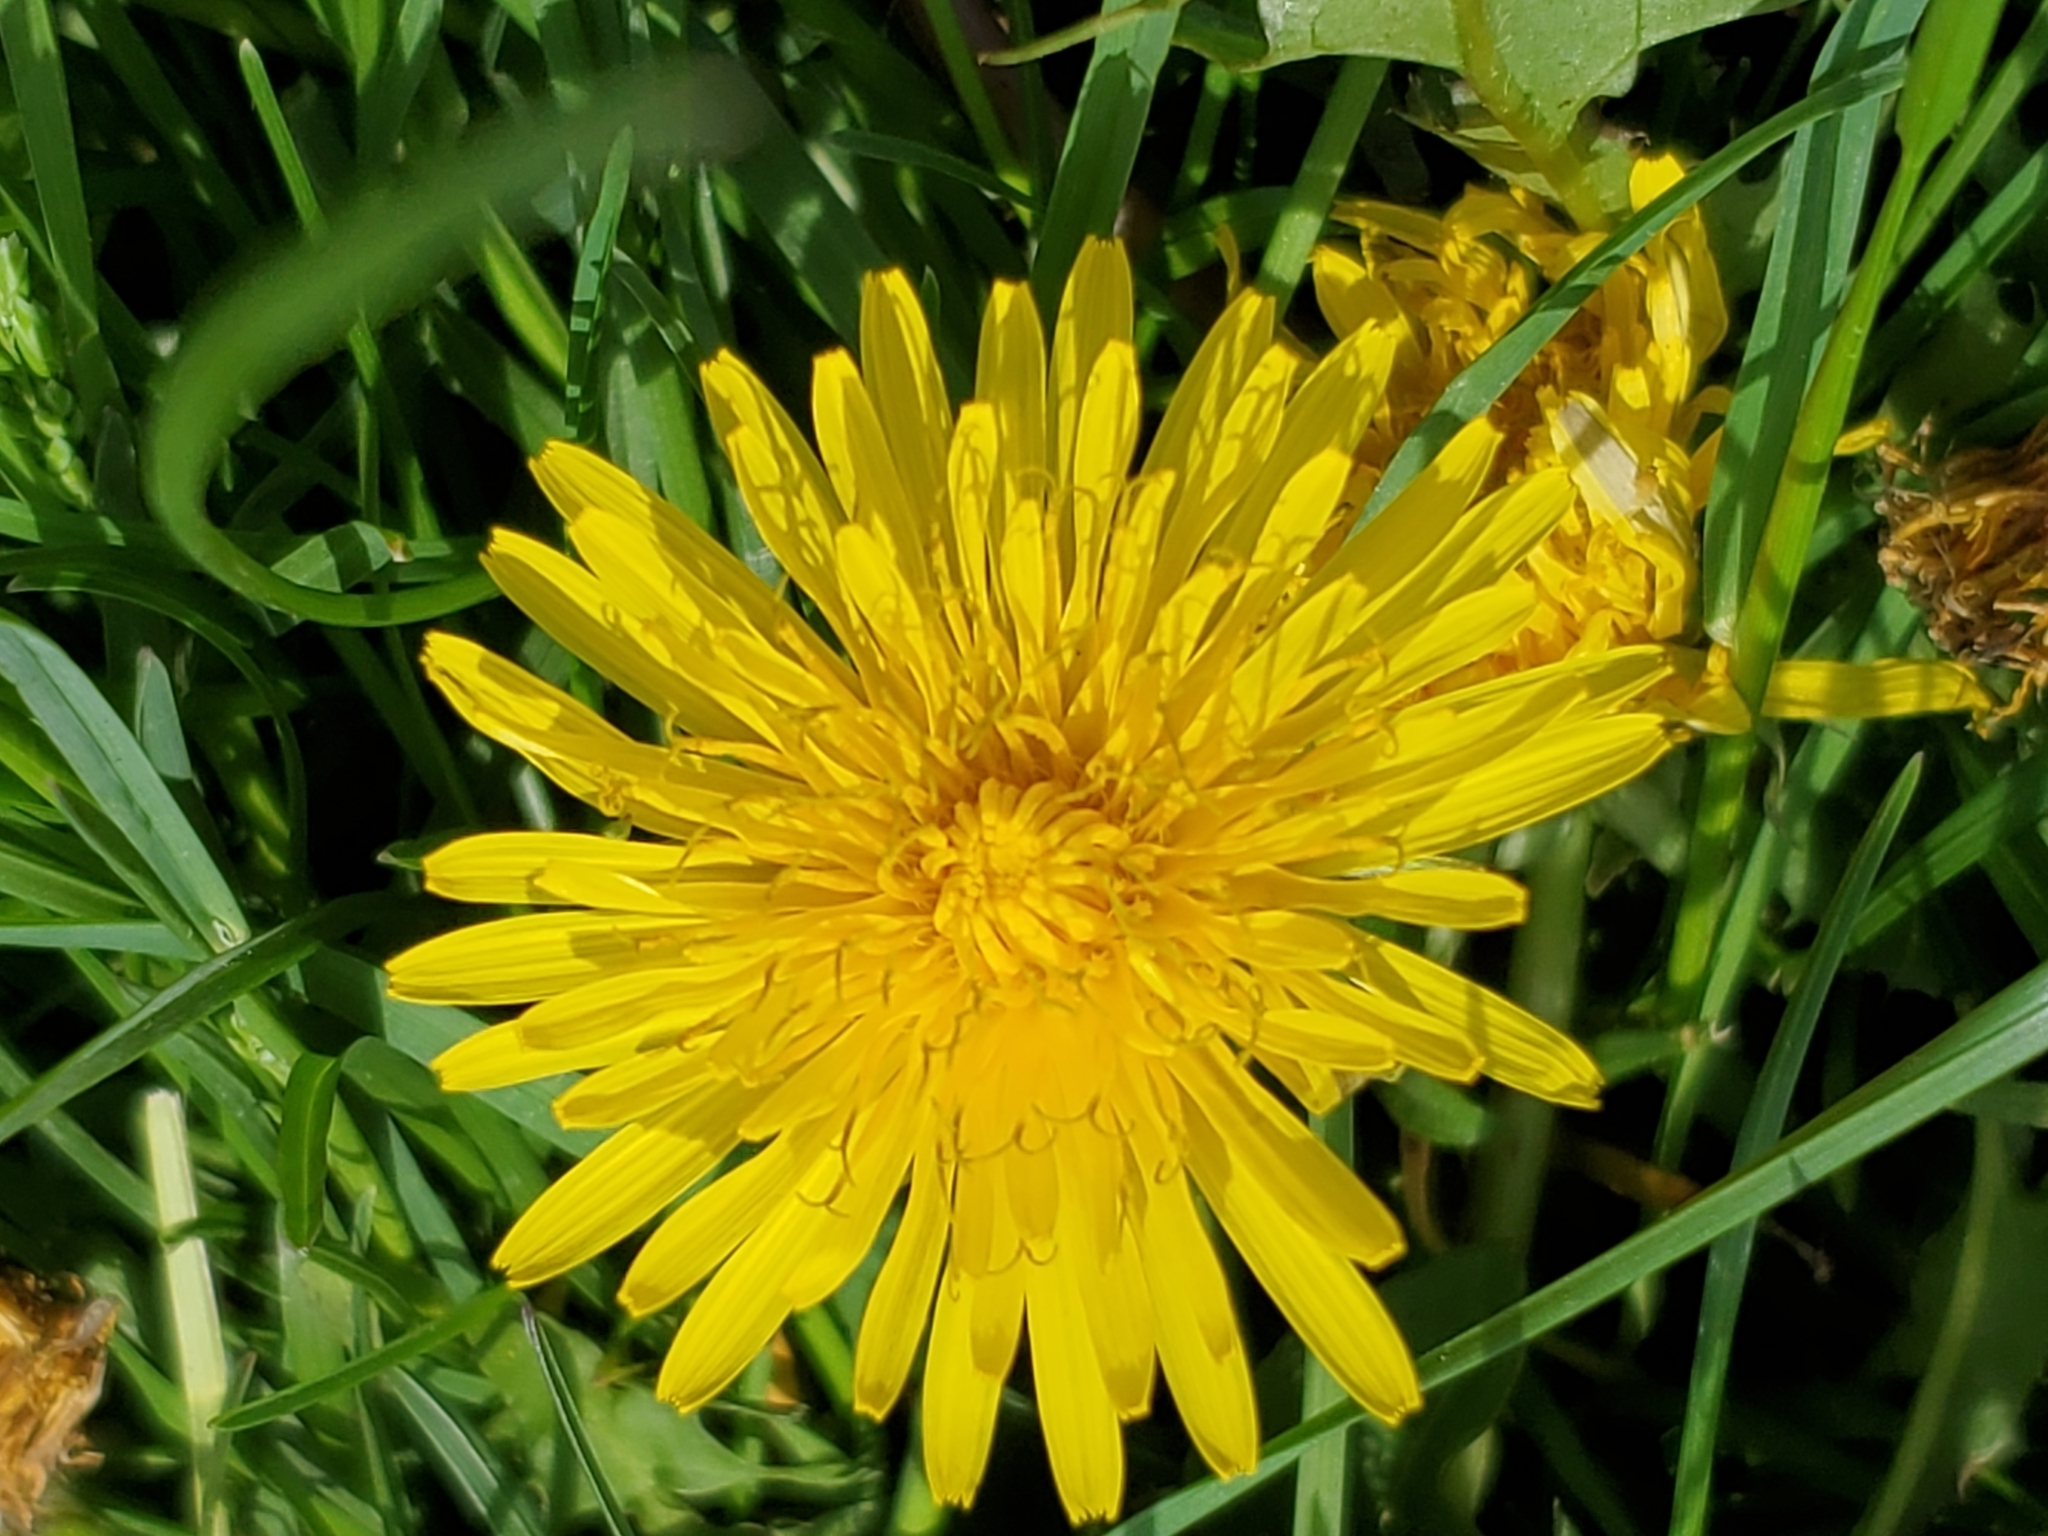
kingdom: Plantae
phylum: Tracheophyta
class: Magnoliopsida
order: Asterales
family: Asteraceae
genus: Taraxacum
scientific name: Taraxacum officinale
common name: Common dandelion
